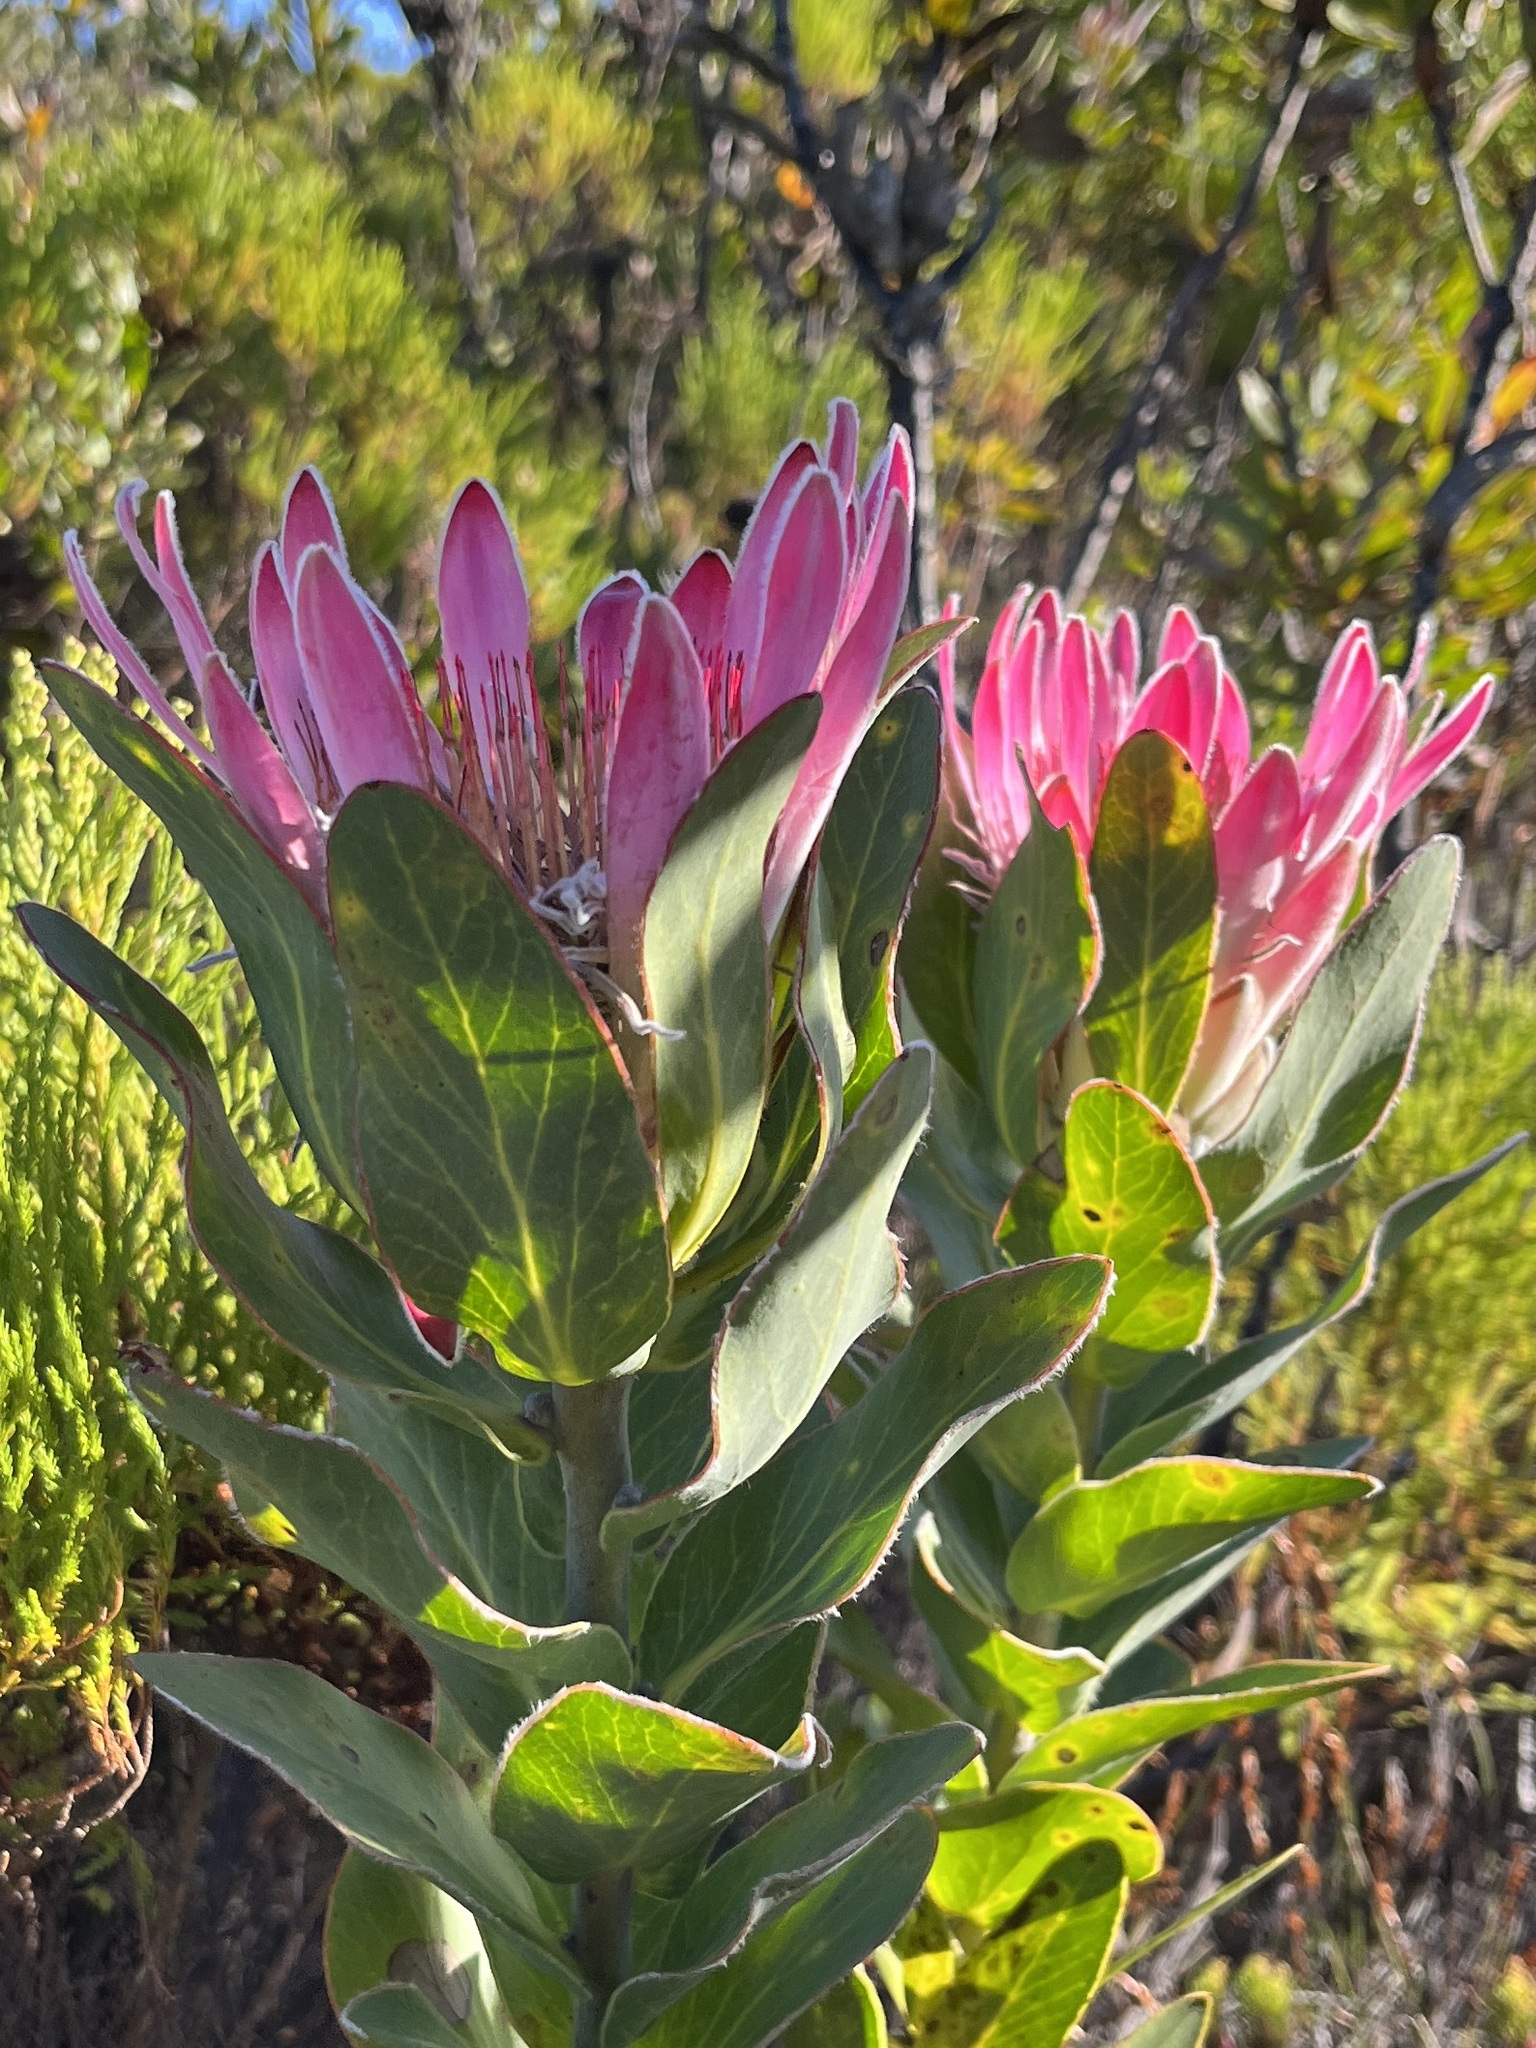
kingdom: Plantae
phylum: Tracheophyta
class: Magnoliopsida
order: Proteales
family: Proteaceae
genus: Protea
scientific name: Protea compacta
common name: Bot river protea
